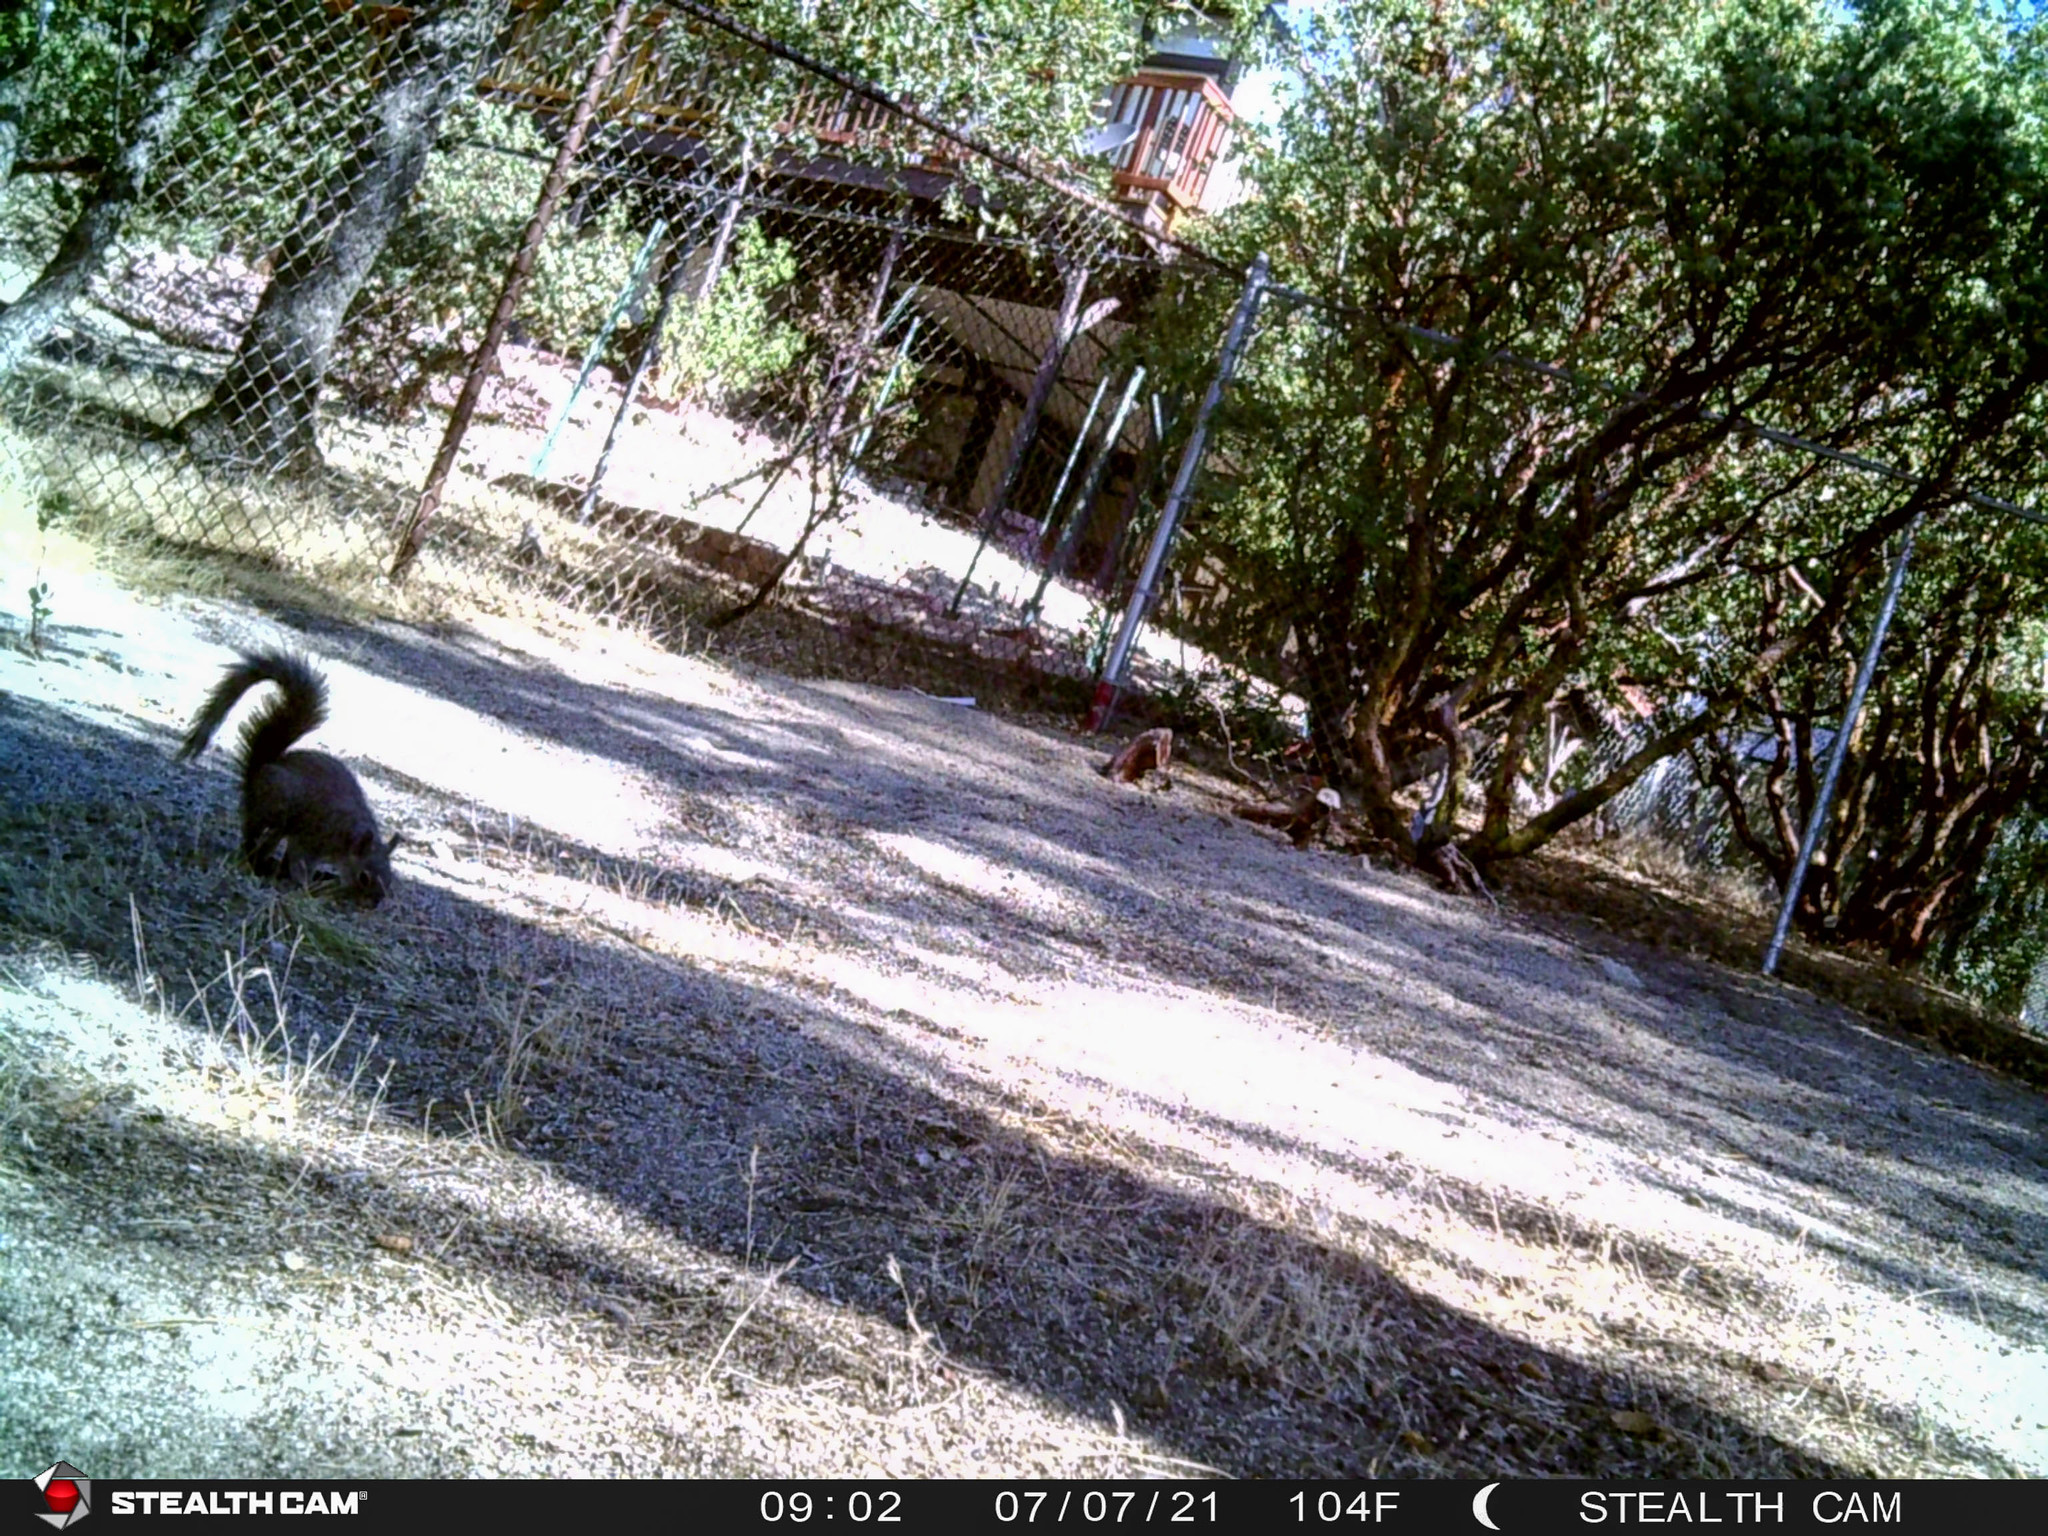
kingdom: Animalia
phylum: Chordata
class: Mammalia
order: Rodentia
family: Sciuridae
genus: Sciurus
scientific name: Sciurus griseus
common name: Western gray squirrel
